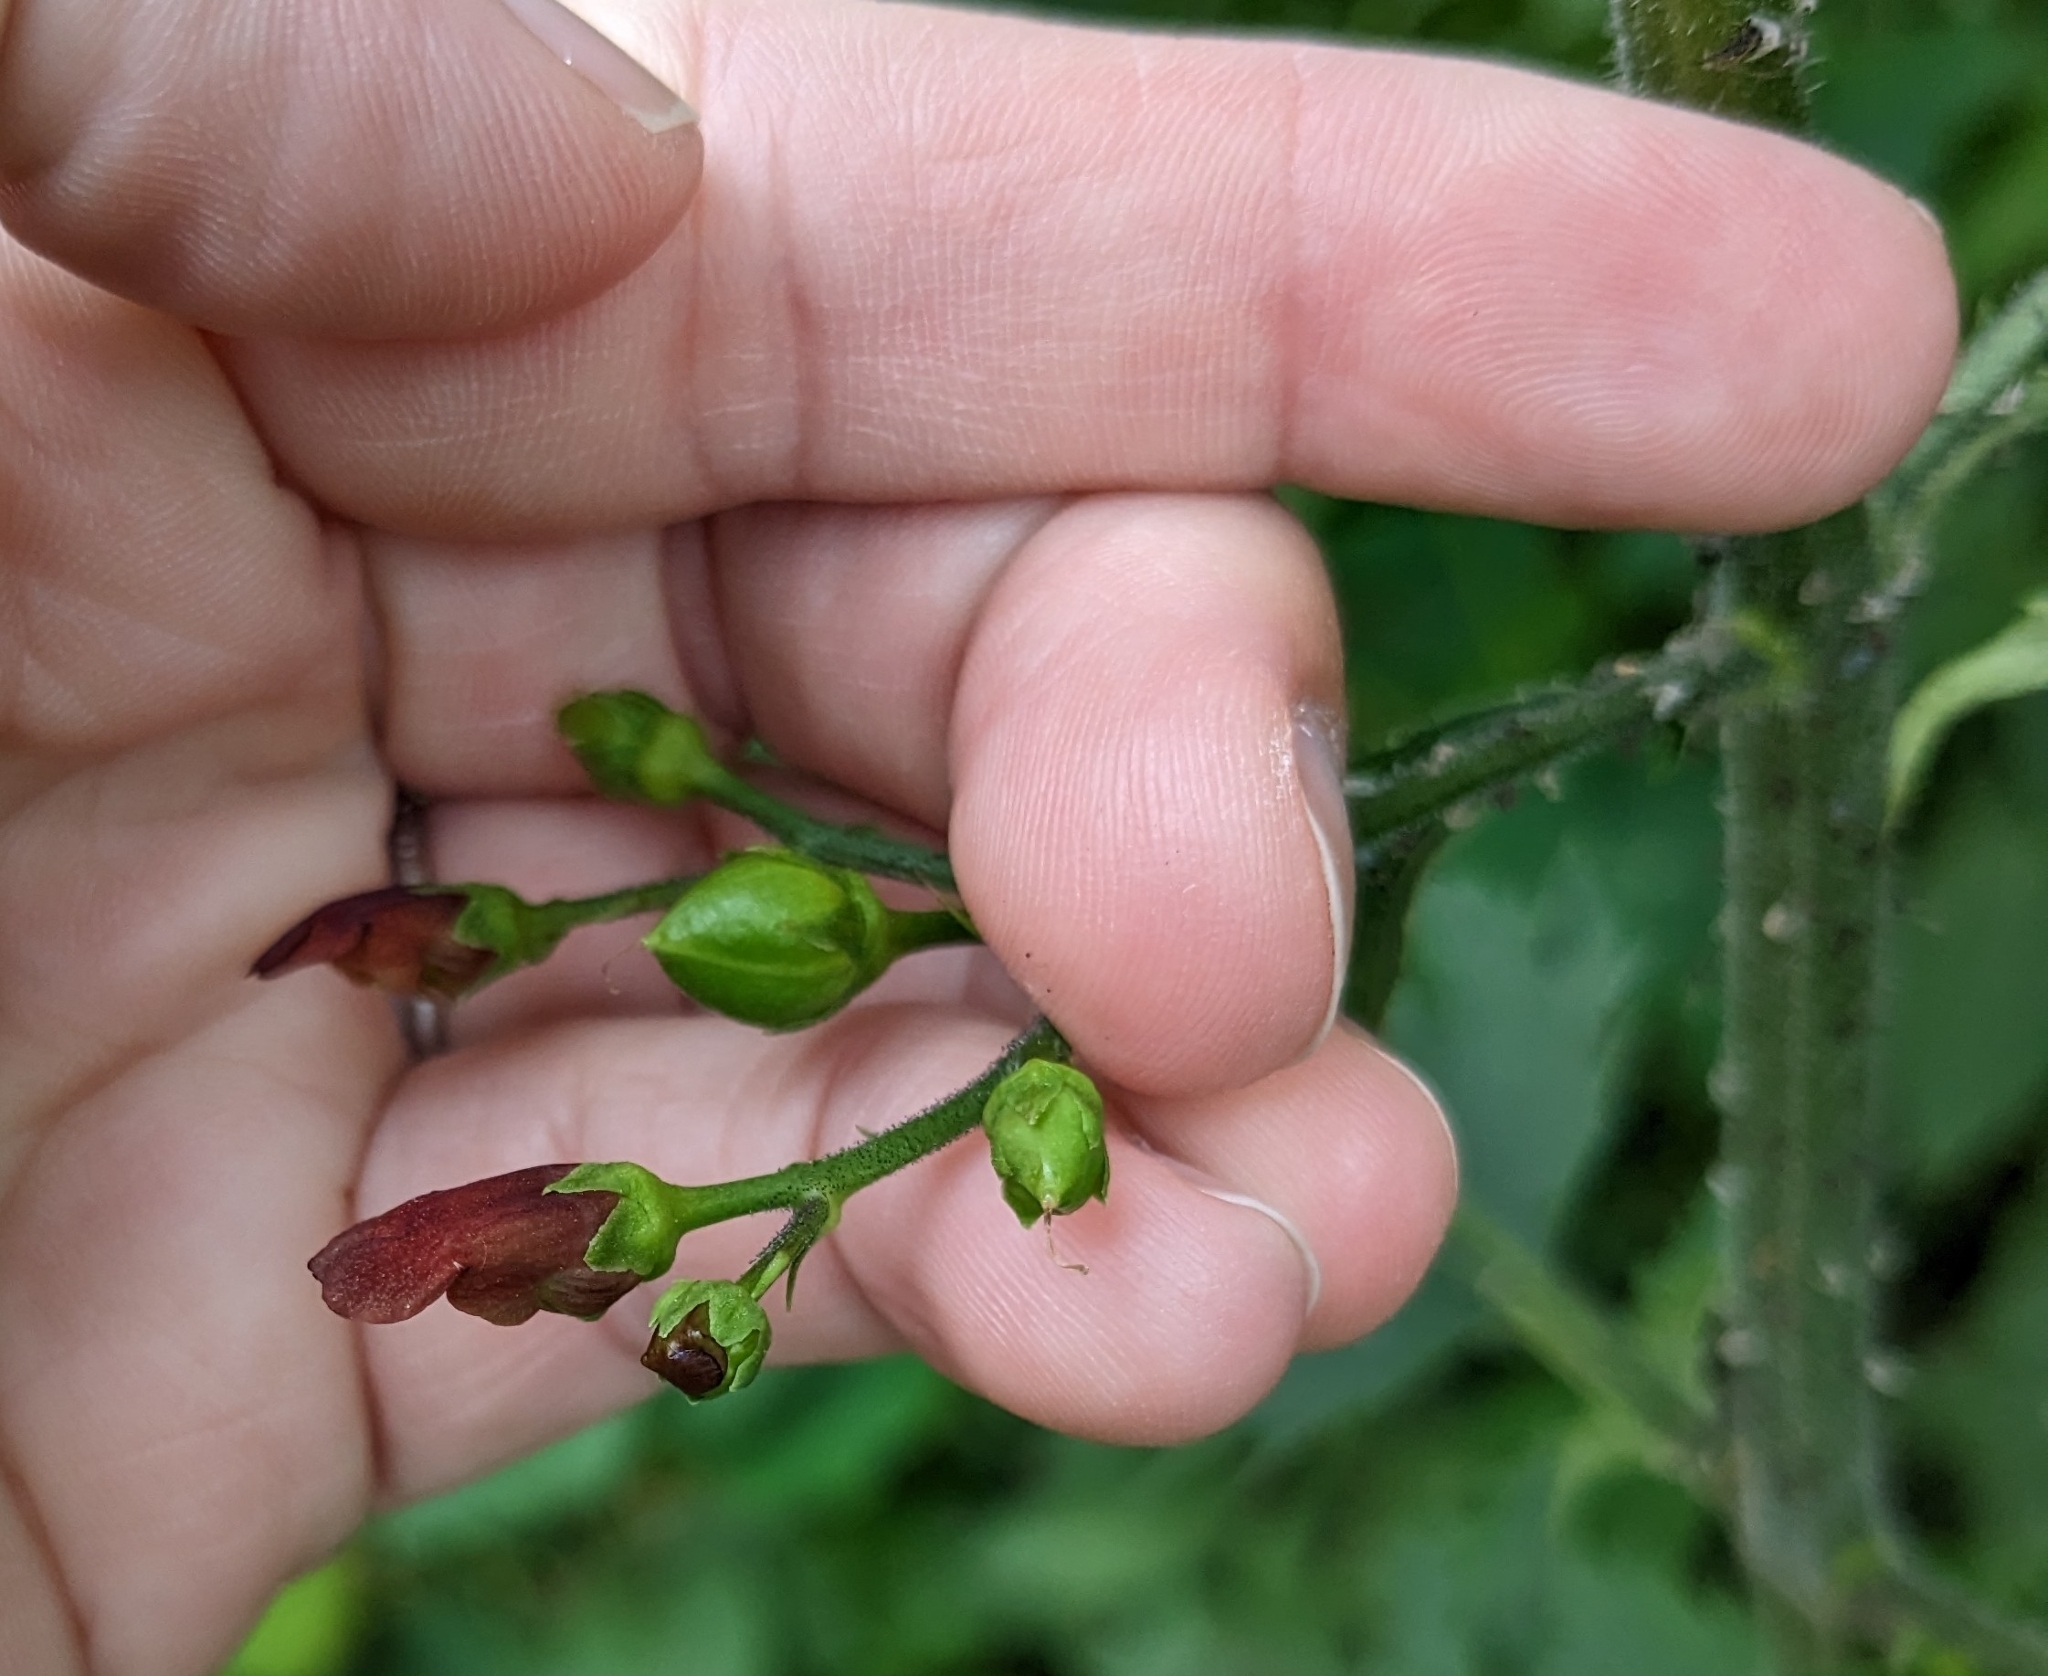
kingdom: Plantae
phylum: Tracheophyta
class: Magnoliopsida
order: Lamiales
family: Scrophulariaceae
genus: Scrophularia
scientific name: Scrophularia californica
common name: California figwort
